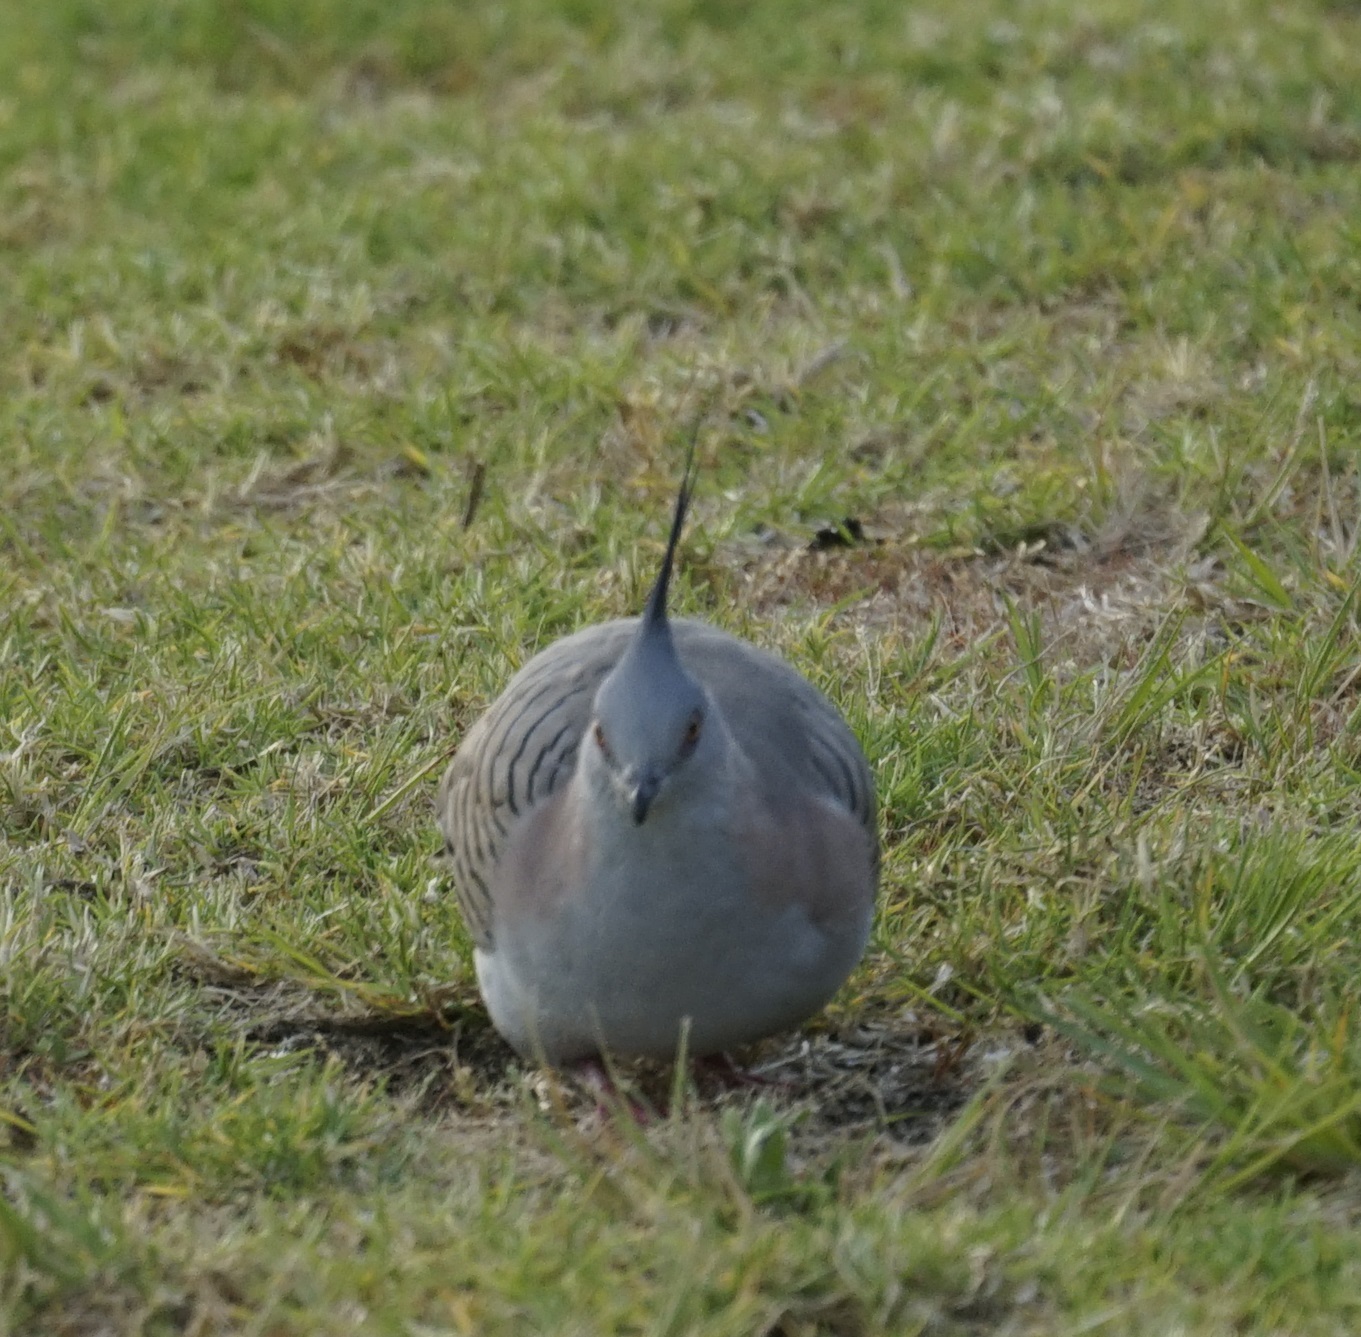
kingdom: Animalia
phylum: Chordata
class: Aves
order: Columbiformes
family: Columbidae
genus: Ocyphaps
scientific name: Ocyphaps lophotes
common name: Crested pigeon
